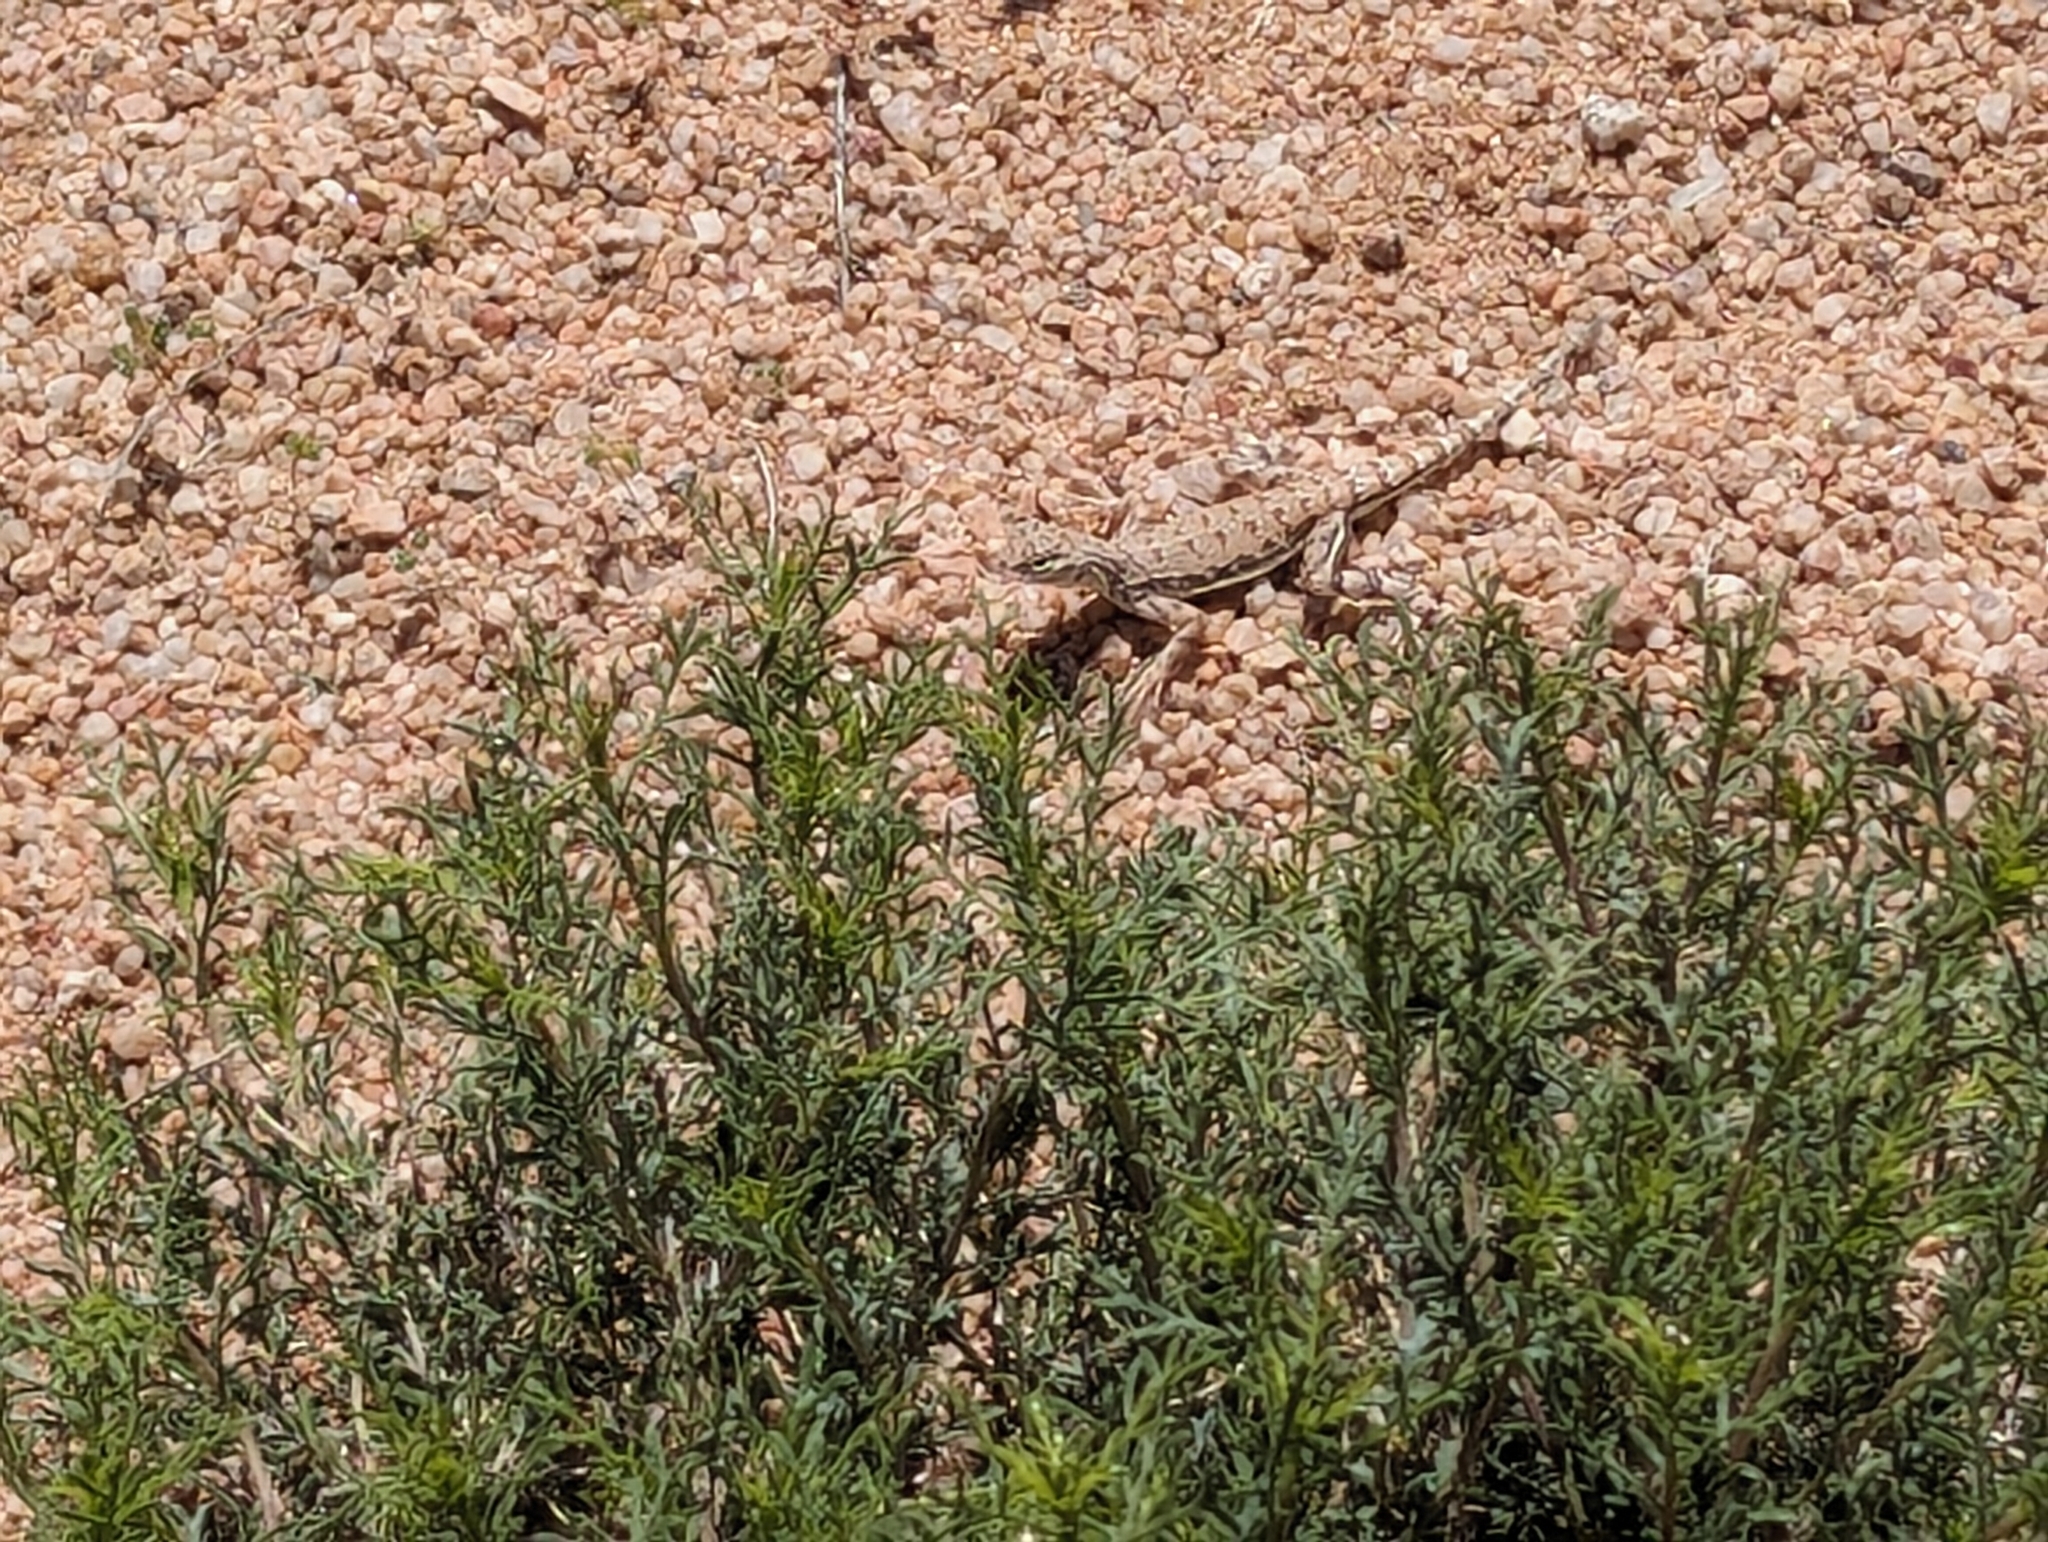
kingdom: Animalia
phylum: Chordata
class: Squamata
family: Phrynosomatidae
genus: Callisaurus
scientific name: Callisaurus draconoides
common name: Zebra-tailed lizard
